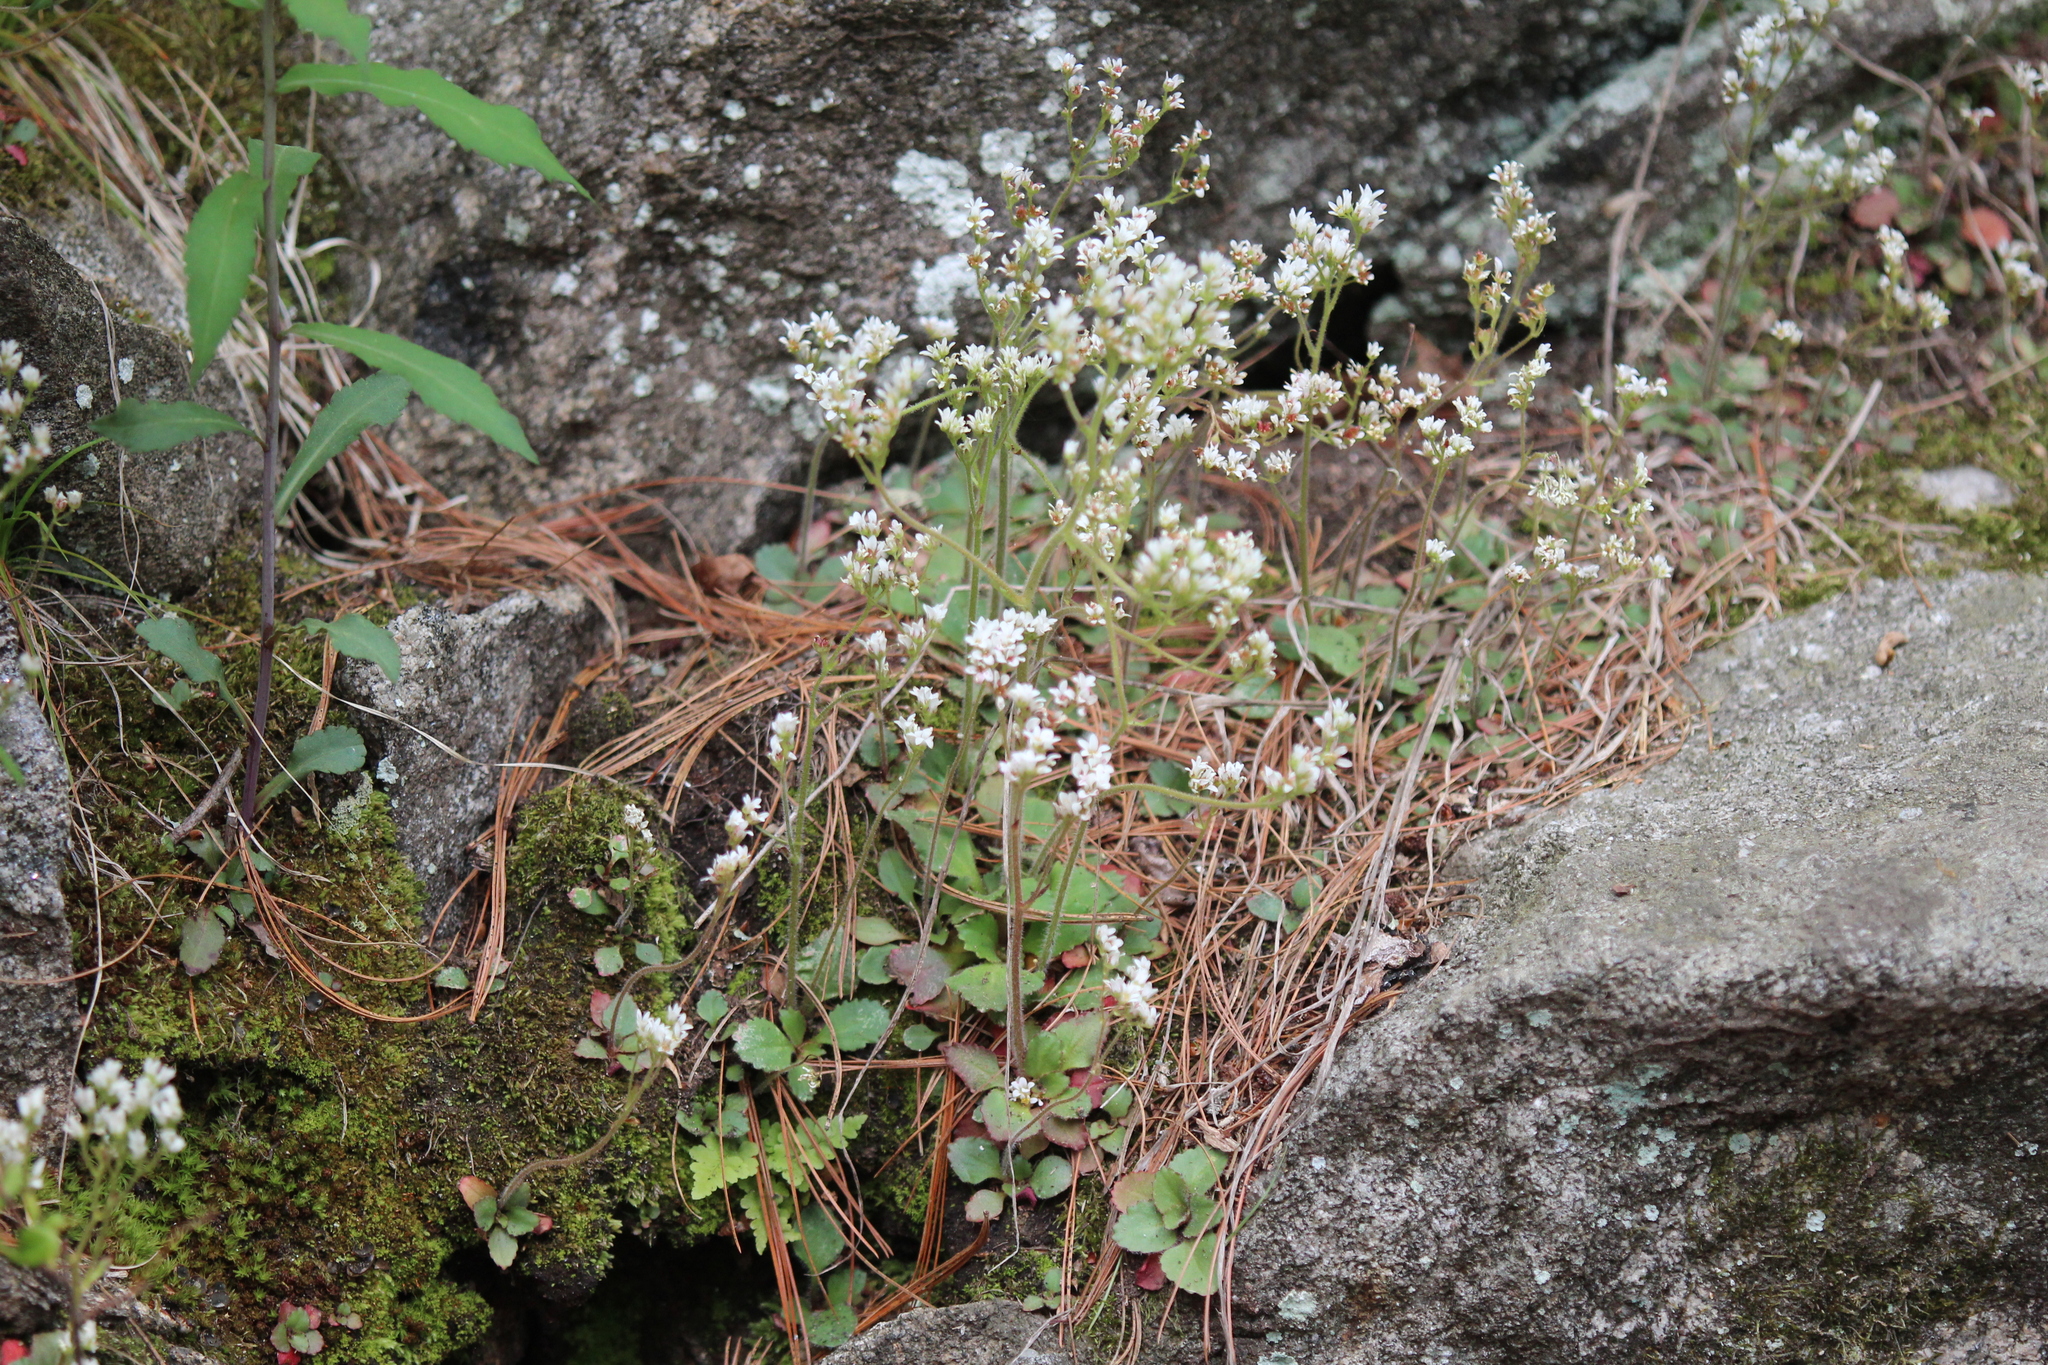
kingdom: Plantae
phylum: Tracheophyta
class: Magnoliopsida
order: Saxifragales
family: Saxifragaceae
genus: Micranthes
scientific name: Micranthes virginiensis
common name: Early saxifrage
